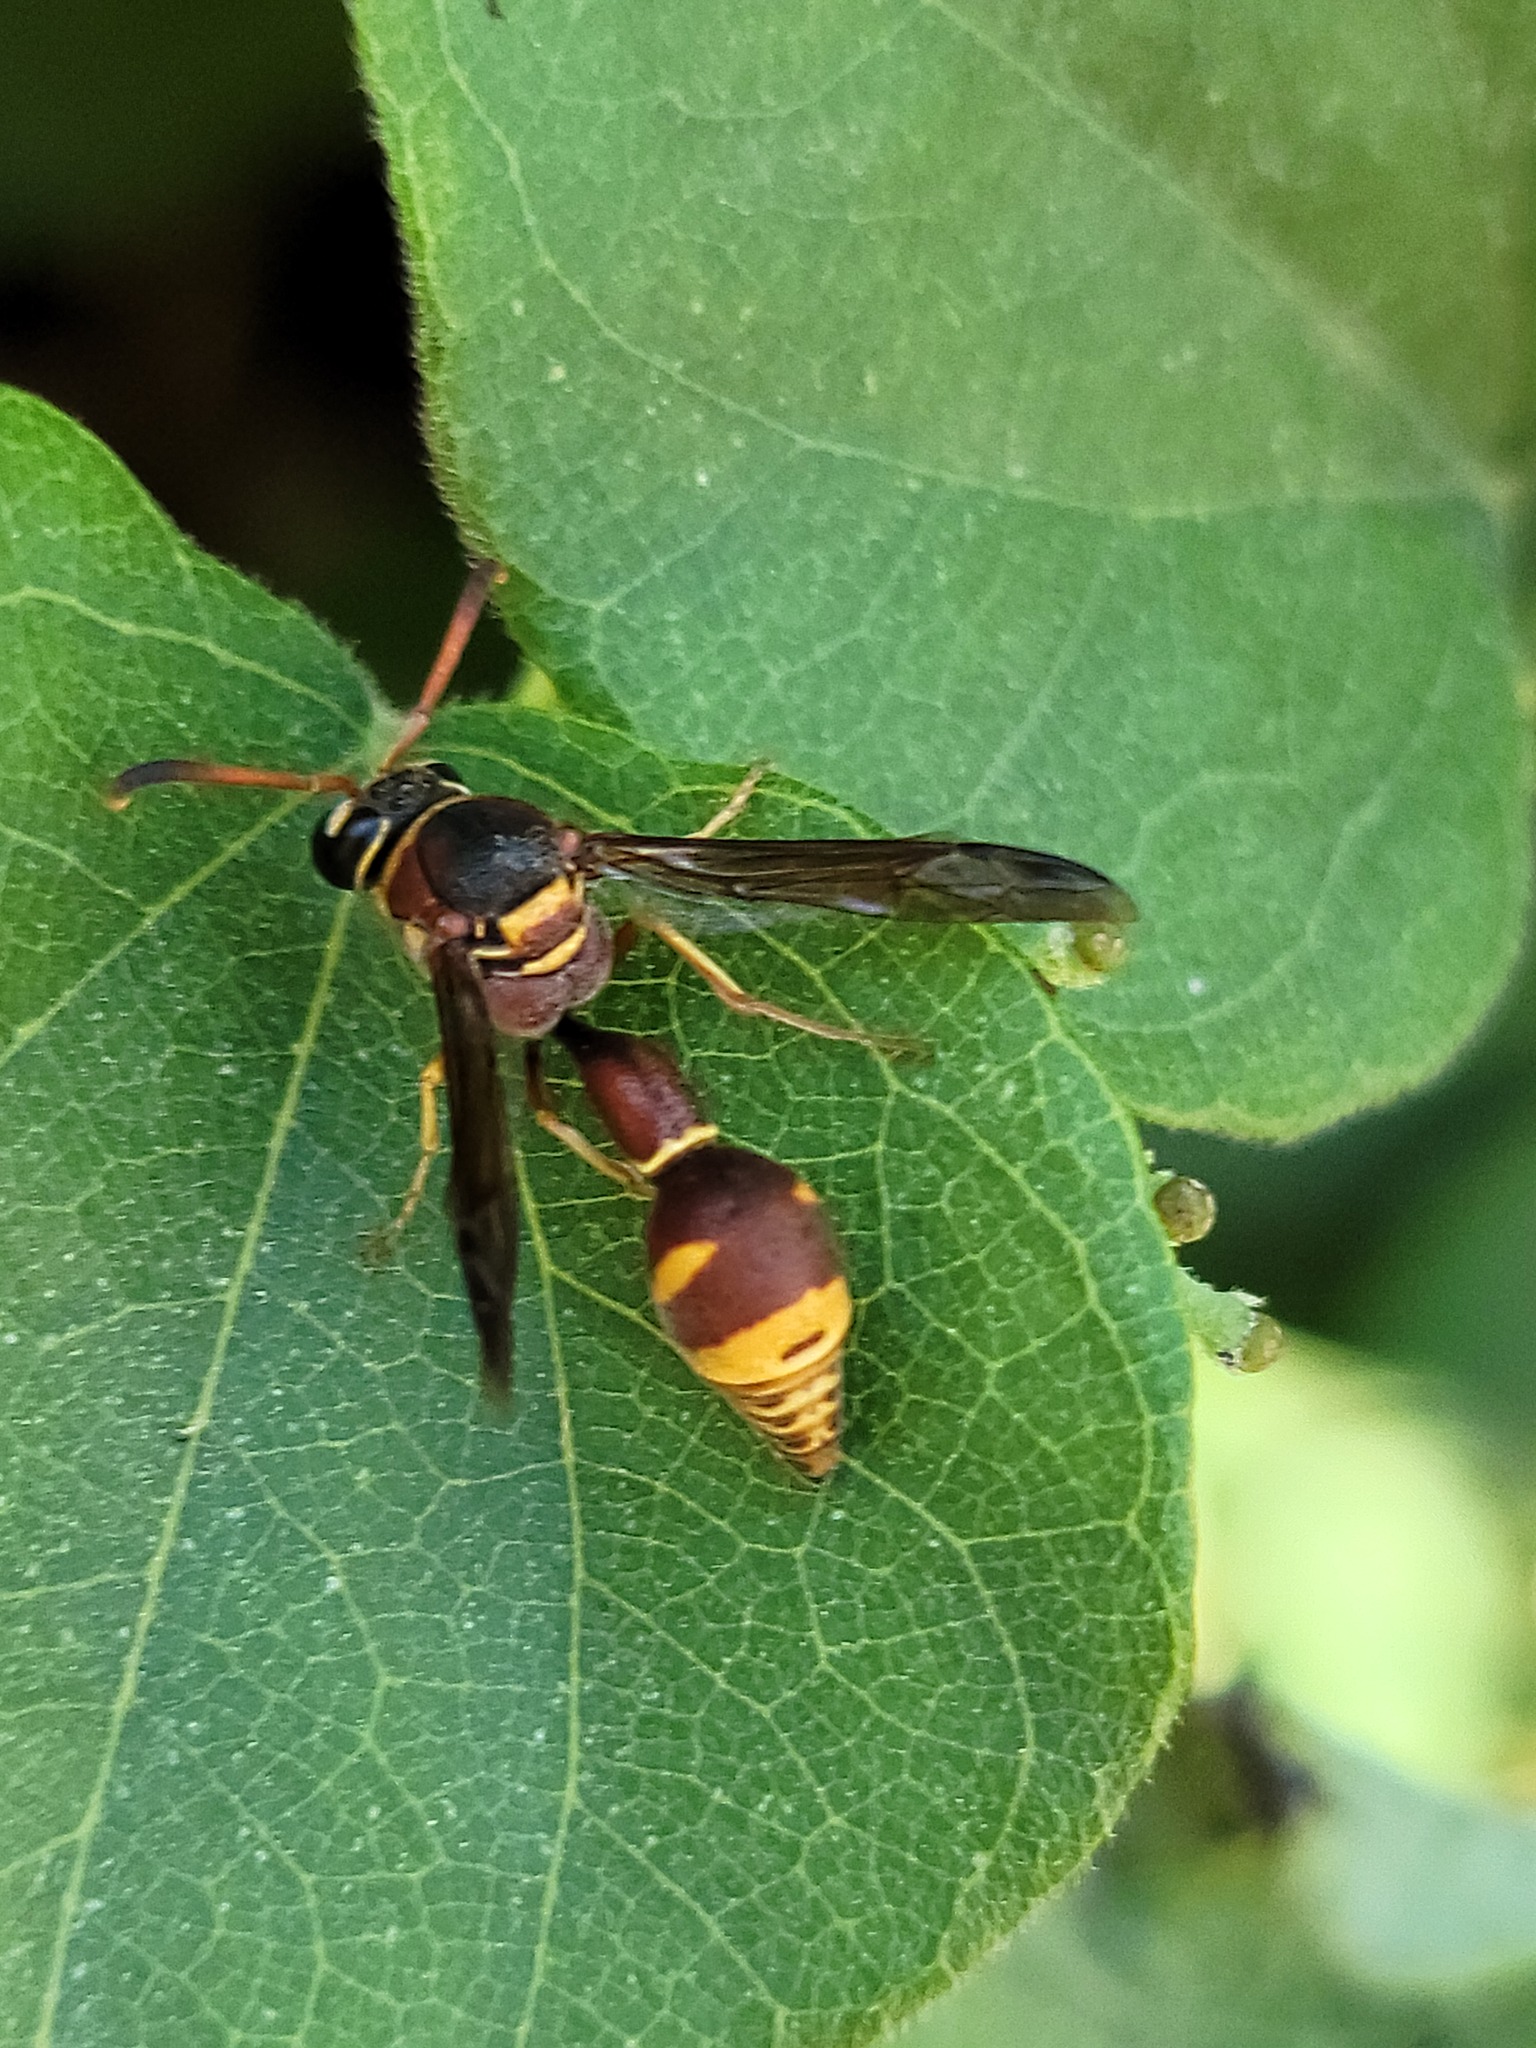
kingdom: Animalia
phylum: Arthropoda
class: Insecta
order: Hymenoptera
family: Vespidae
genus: Eumenes
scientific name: Eumenes smithii
